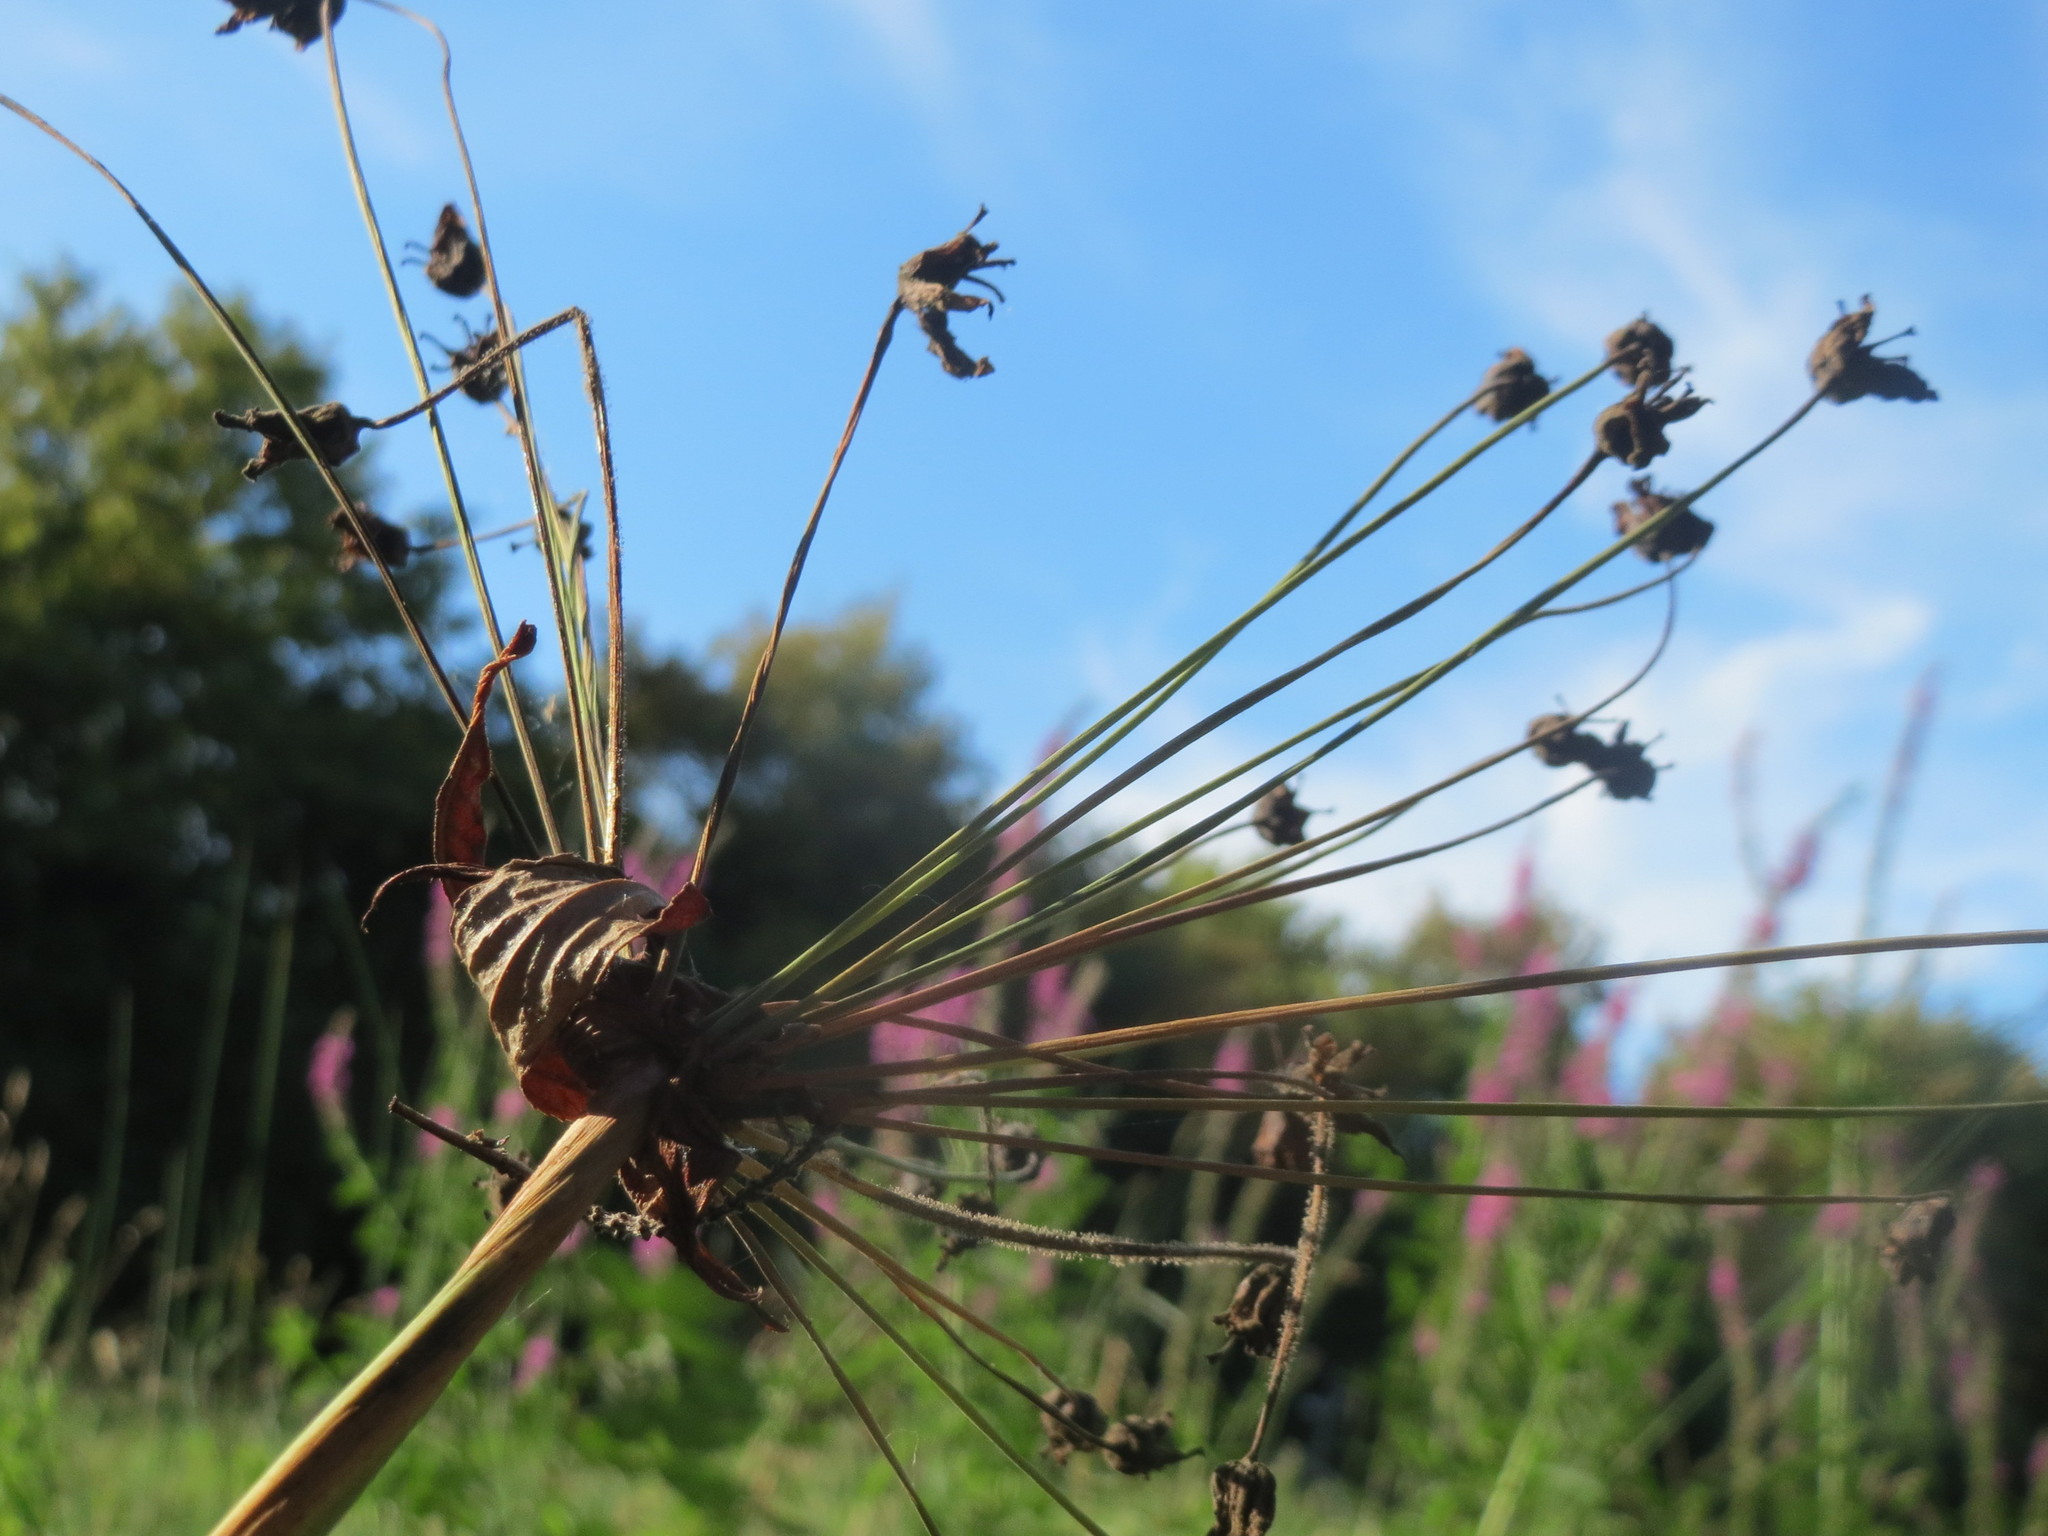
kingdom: Plantae
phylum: Tracheophyta
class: Liliopsida
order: Alismatales
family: Butomaceae
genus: Butomus
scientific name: Butomus umbellatus
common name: Flowering-rush
